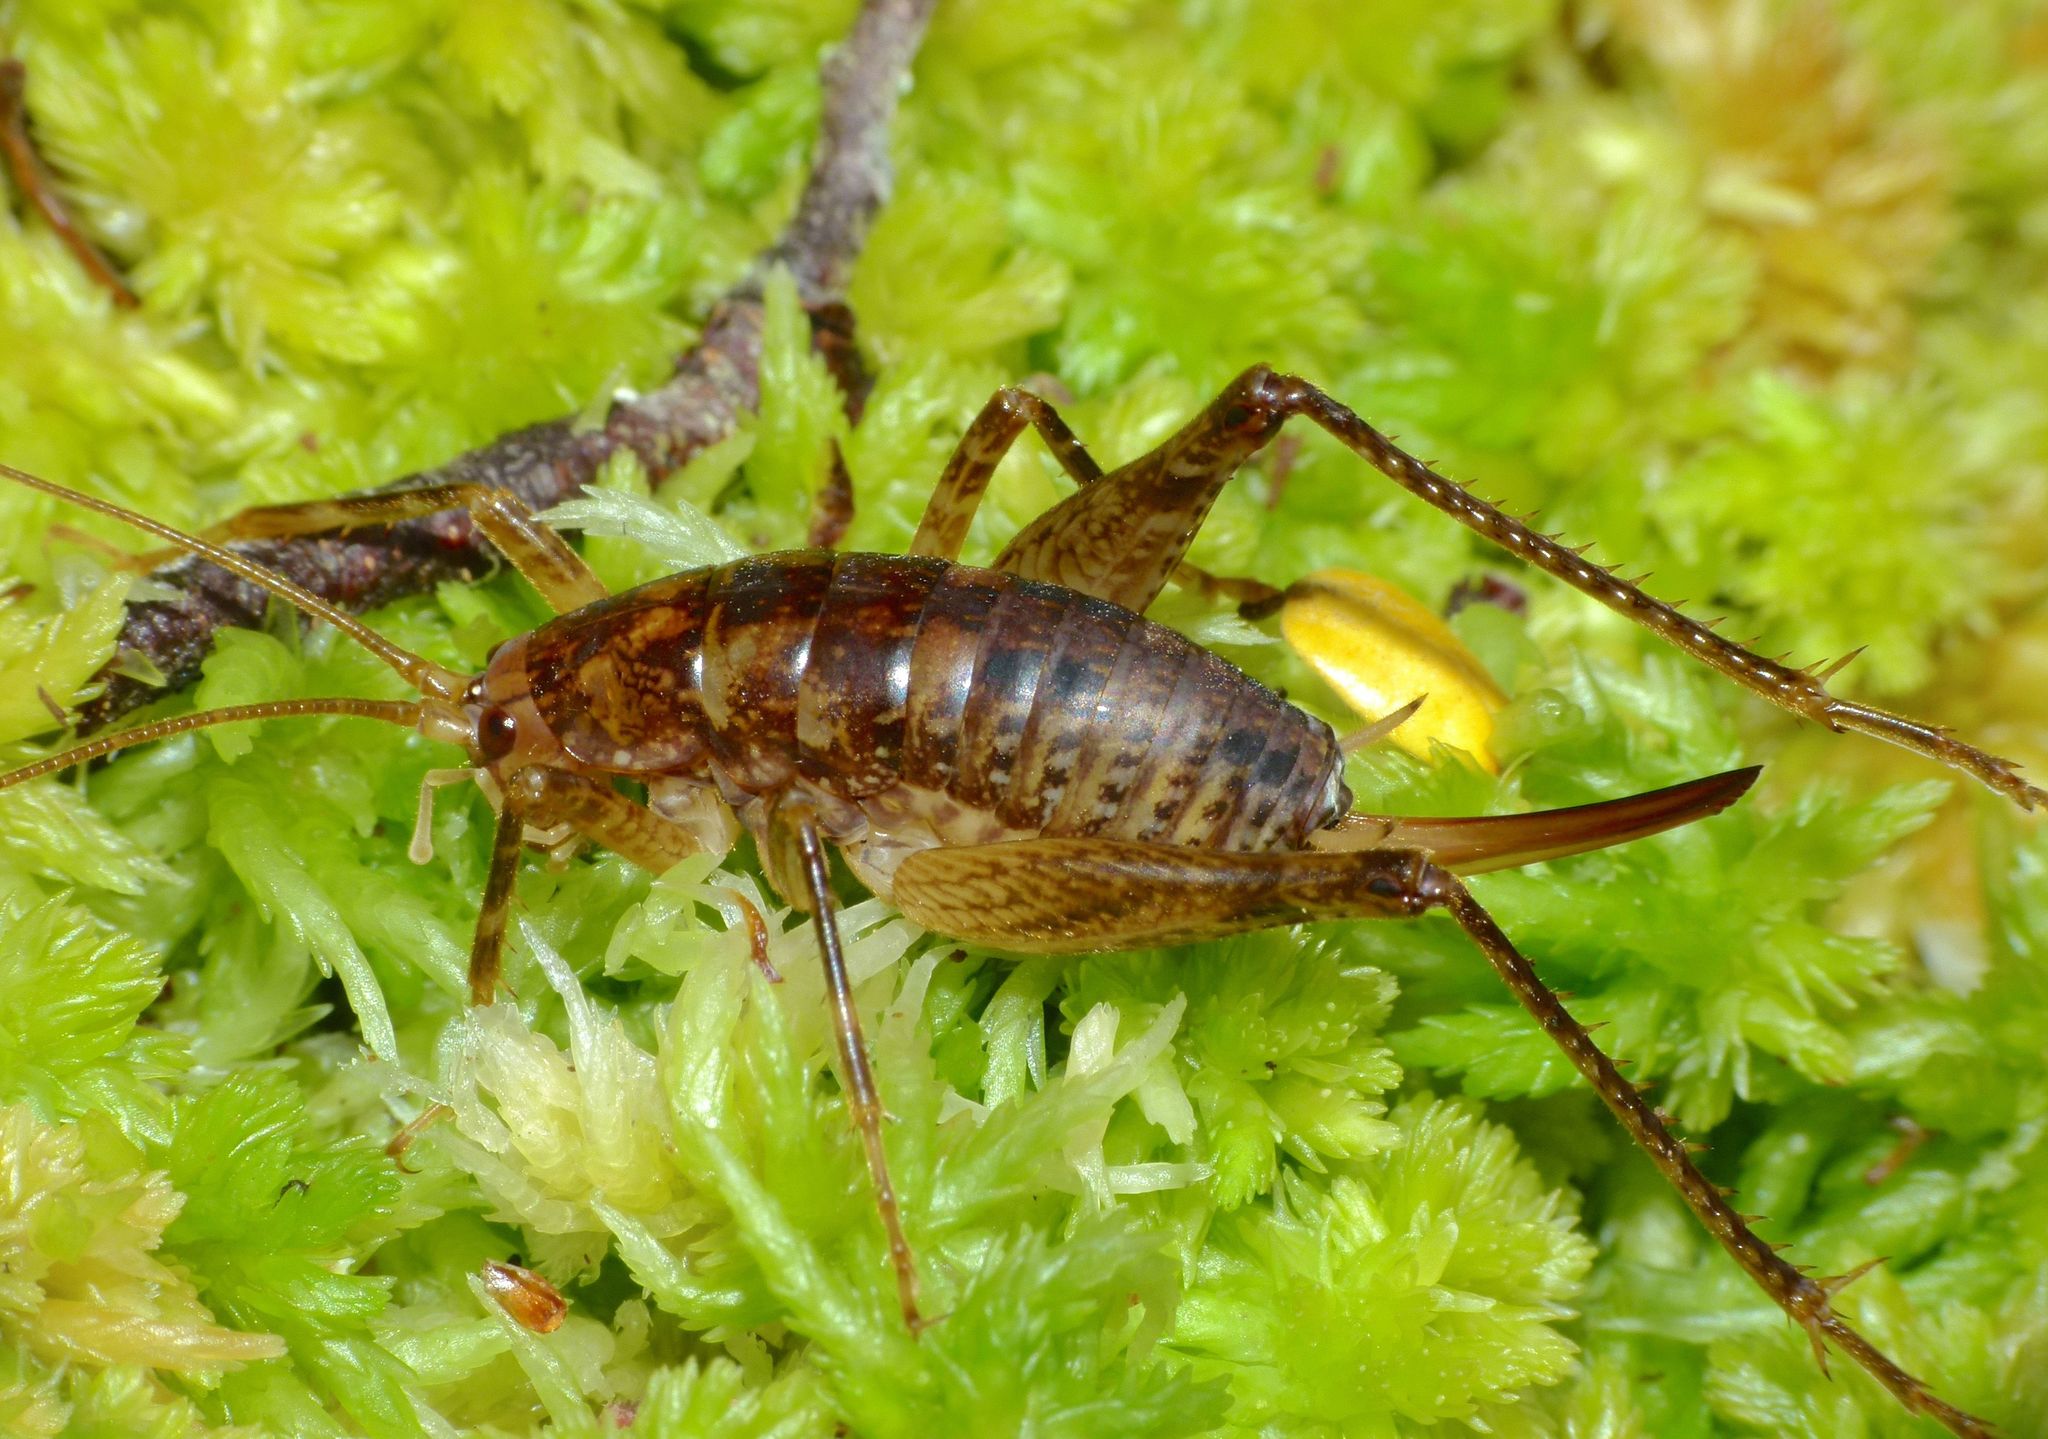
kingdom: Animalia
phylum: Arthropoda
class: Insecta
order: Orthoptera
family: Rhaphidophoridae
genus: Talitropsis
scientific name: Talitropsis chopardi
